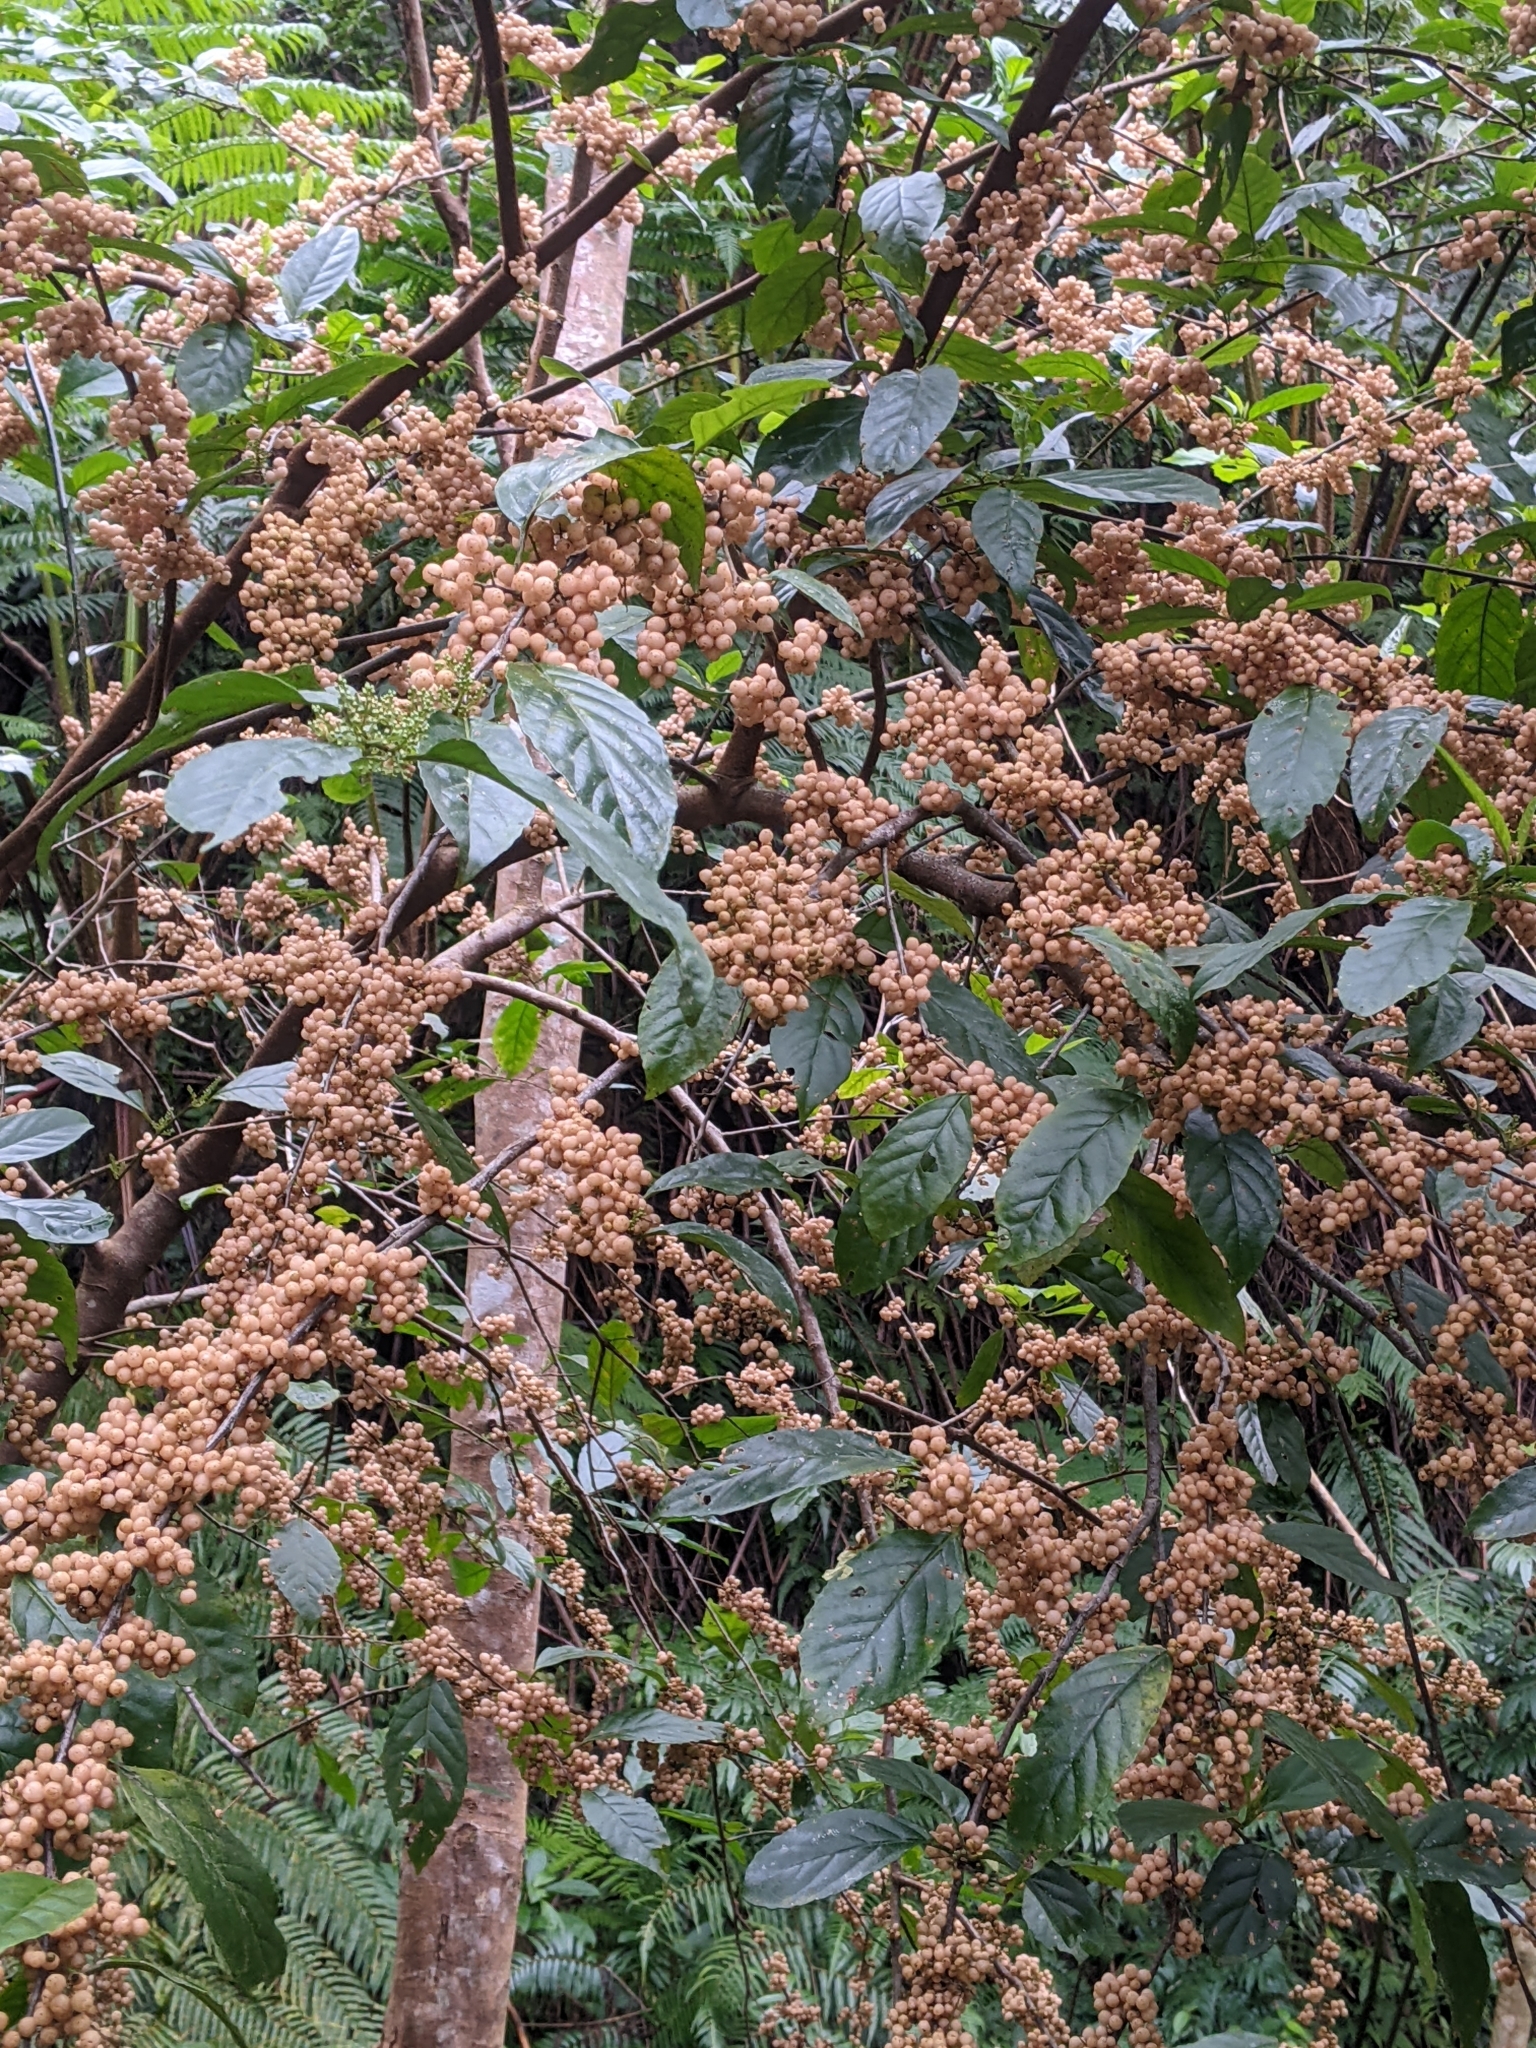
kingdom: Plantae
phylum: Tracheophyta
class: Magnoliopsida
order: Ericales
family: Primulaceae
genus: Maesa
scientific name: Maesa perlaria
